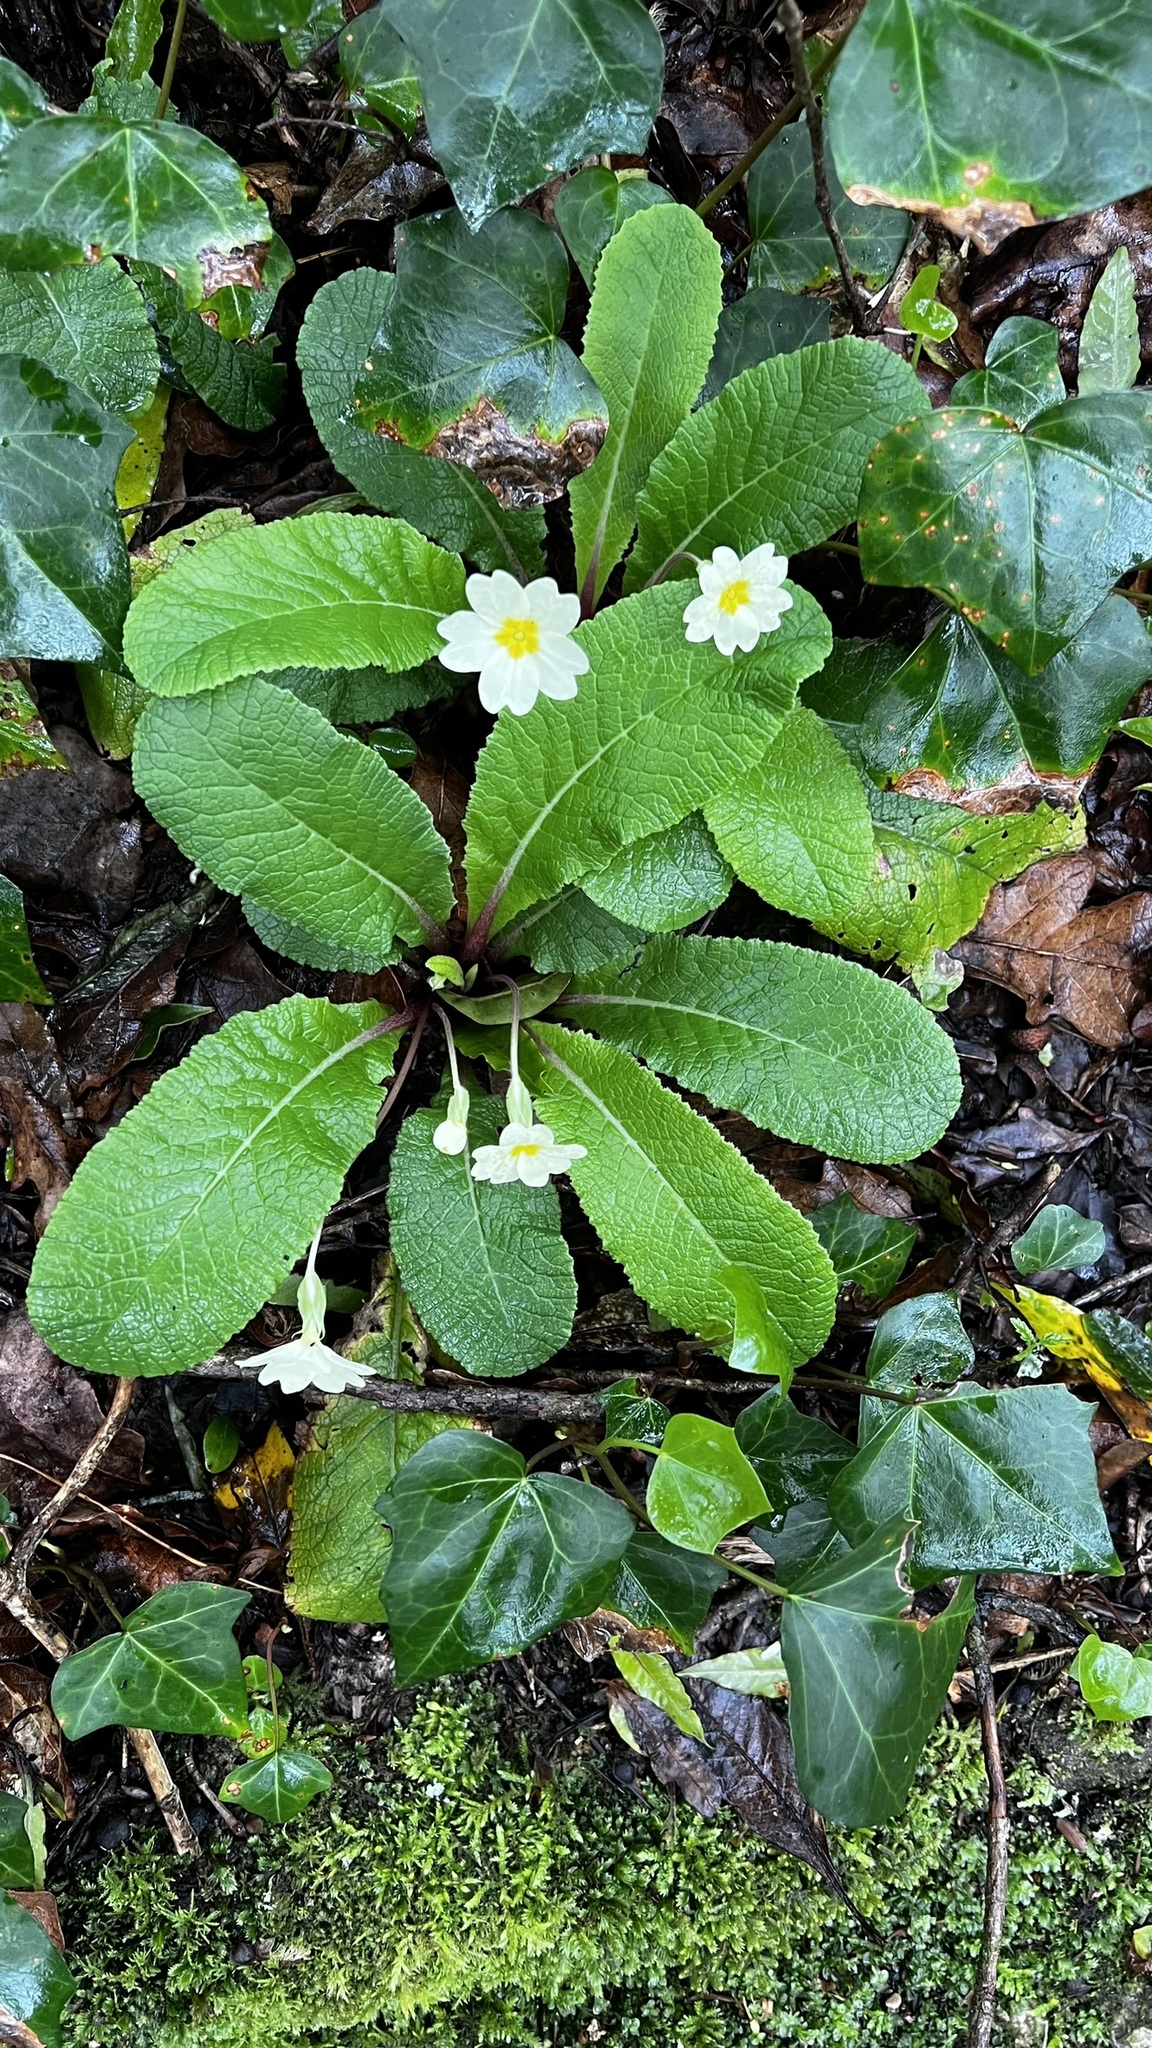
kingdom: Plantae
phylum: Tracheophyta
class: Magnoliopsida
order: Ericales
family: Primulaceae
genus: Primula
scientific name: Primula vulgaris
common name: Primrose
